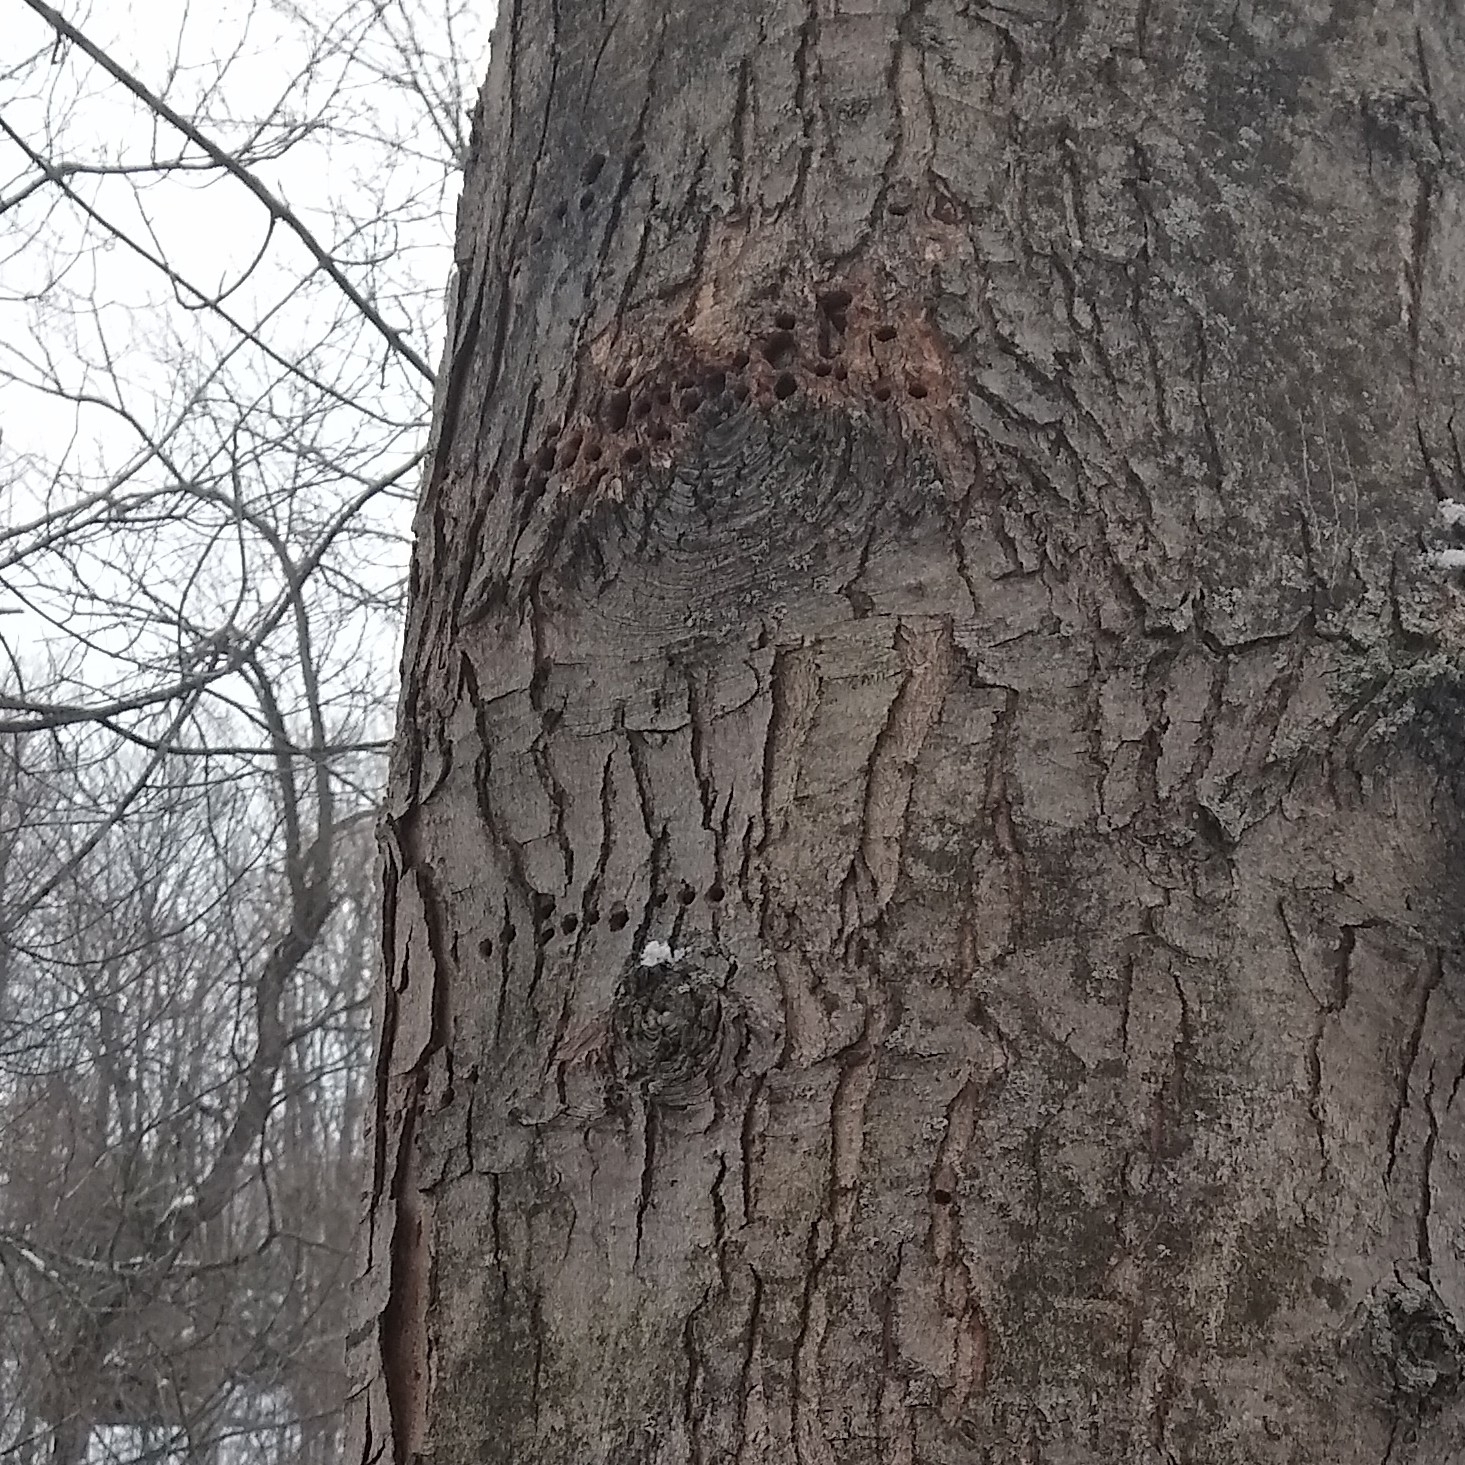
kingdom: Animalia
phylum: Chordata
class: Aves
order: Piciformes
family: Picidae
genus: Sphyrapicus
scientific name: Sphyrapicus varius
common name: Yellow-bellied sapsucker
